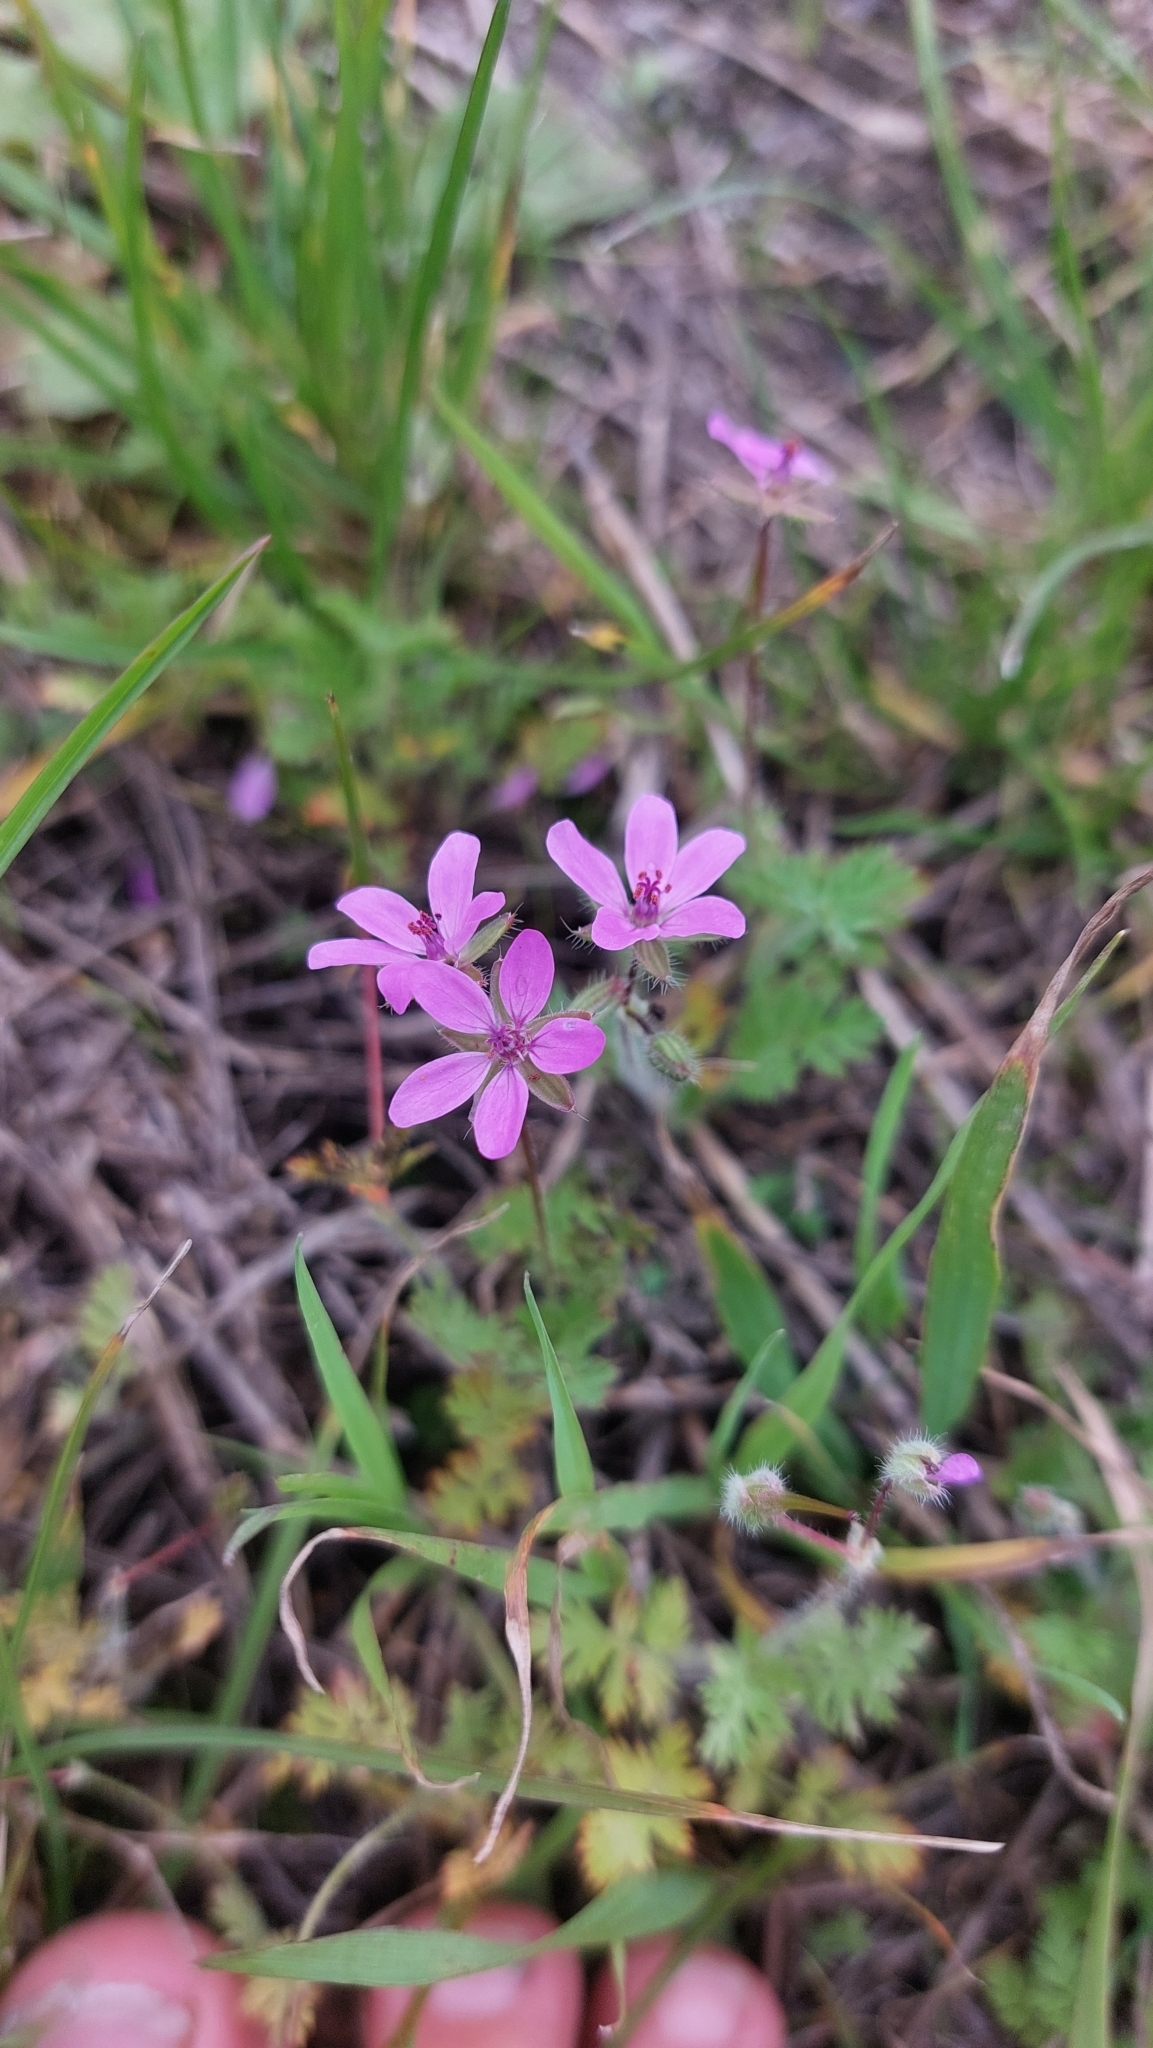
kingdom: Plantae
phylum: Tracheophyta
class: Magnoliopsida
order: Geraniales
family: Geraniaceae
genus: Erodium
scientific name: Erodium cicutarium
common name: Common stork's-bill
